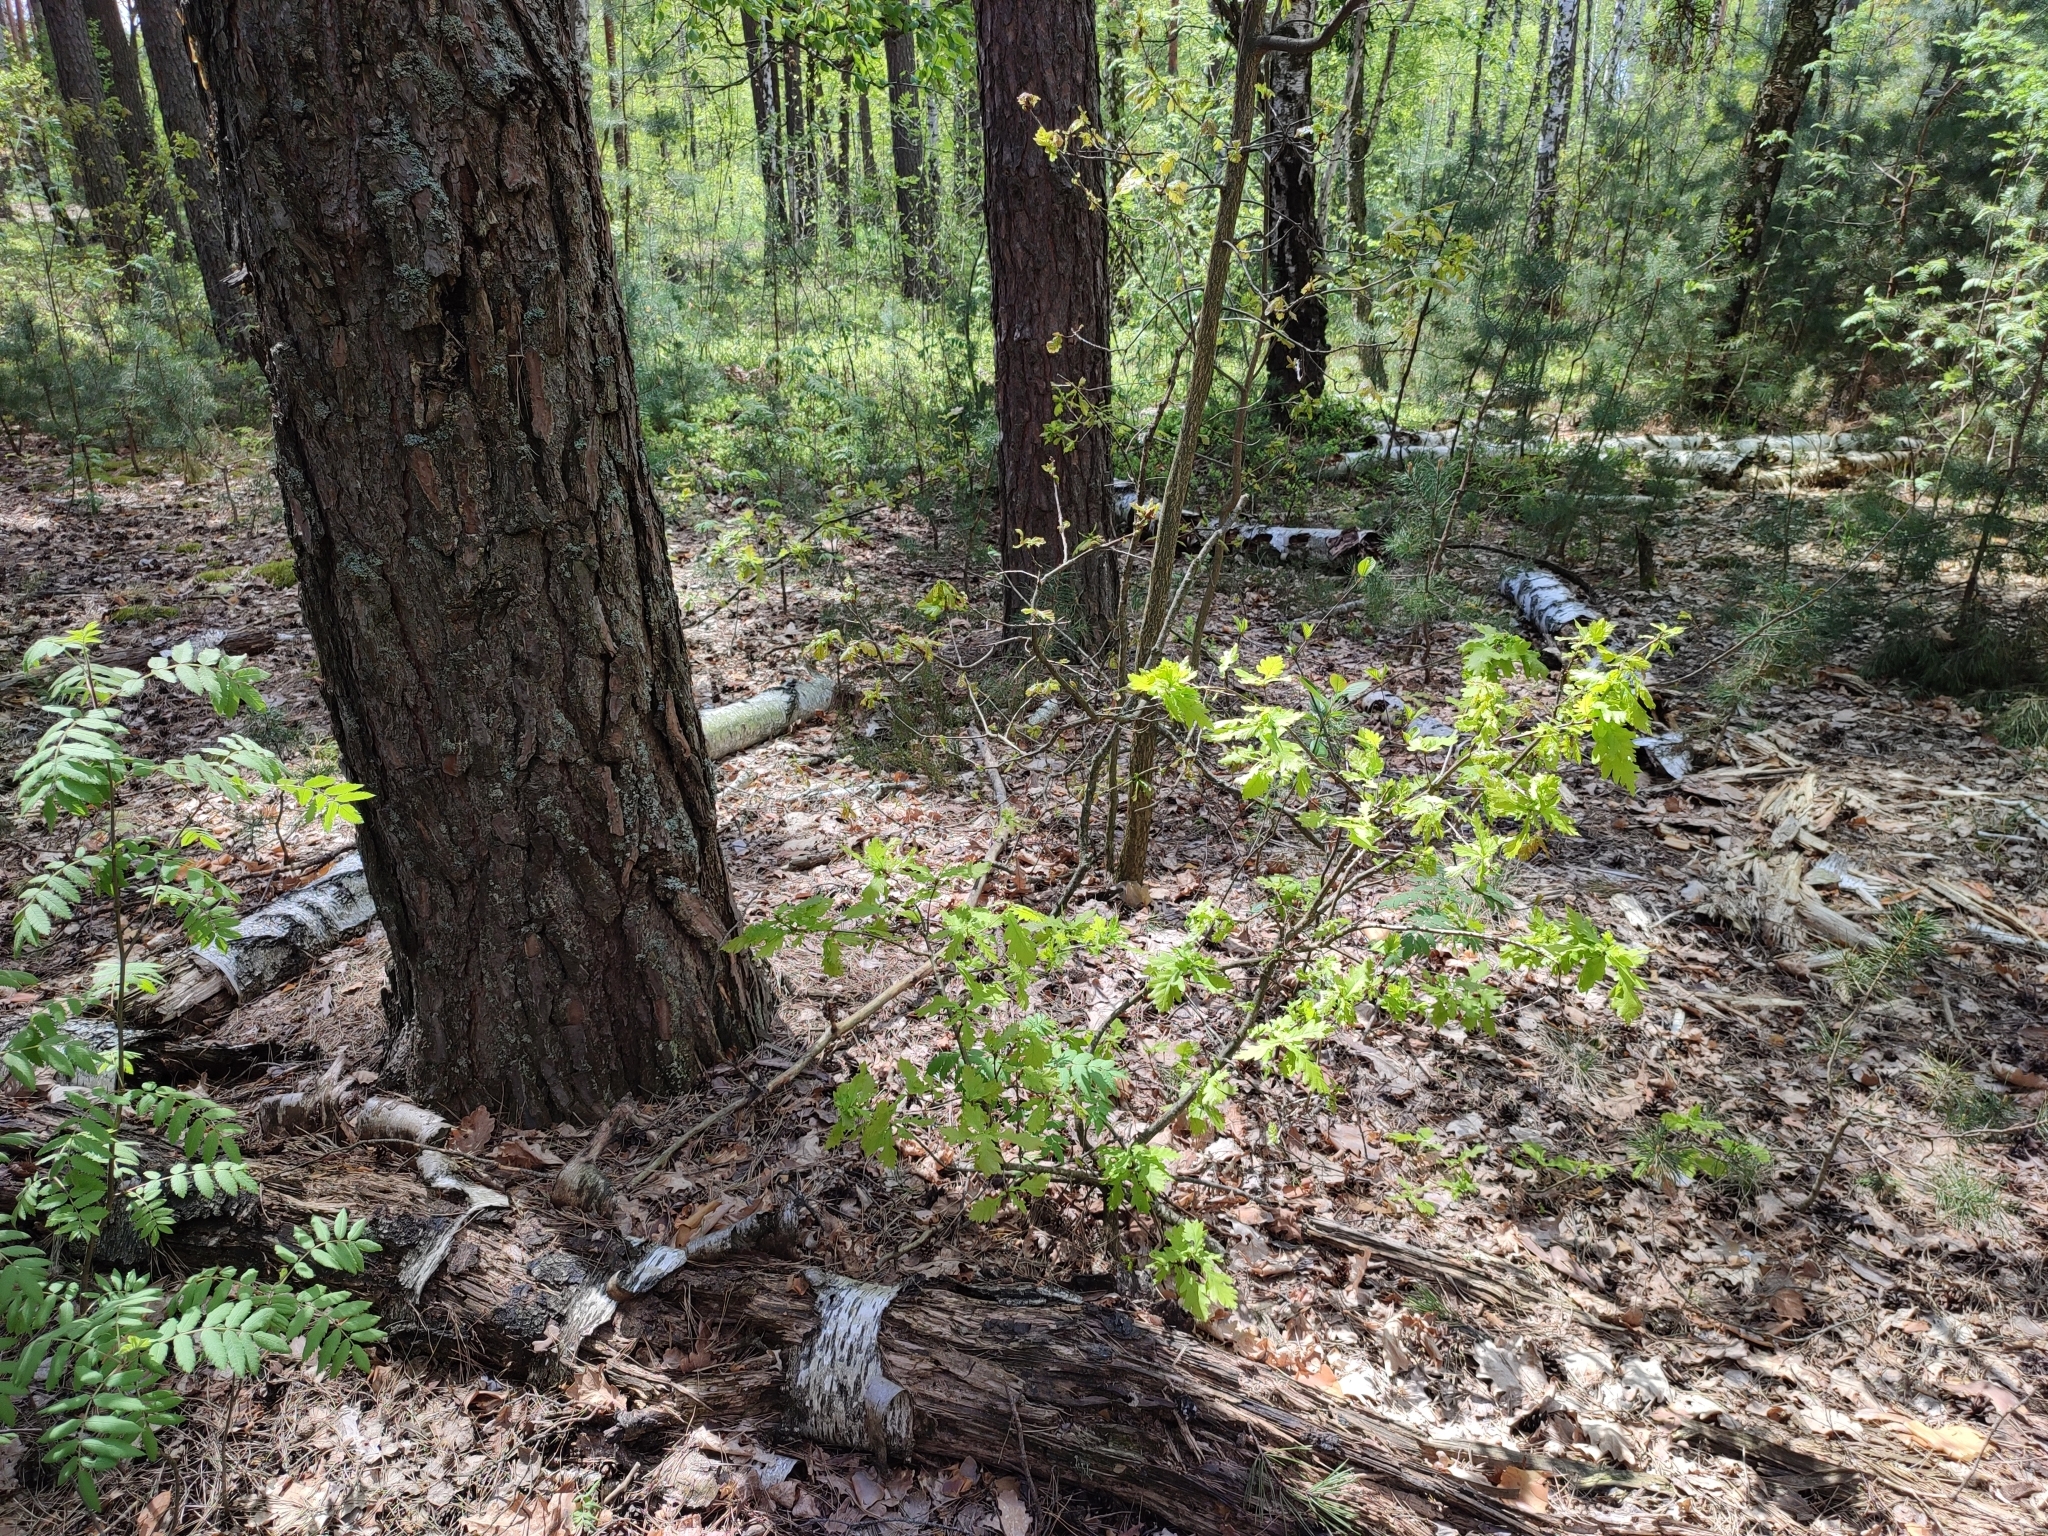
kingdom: Plantae
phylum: Tracheophyta
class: Magnoliopsida
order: Fagales
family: Fagaceae
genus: Quercus
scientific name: Quercus robur
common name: Pedunculate oak
